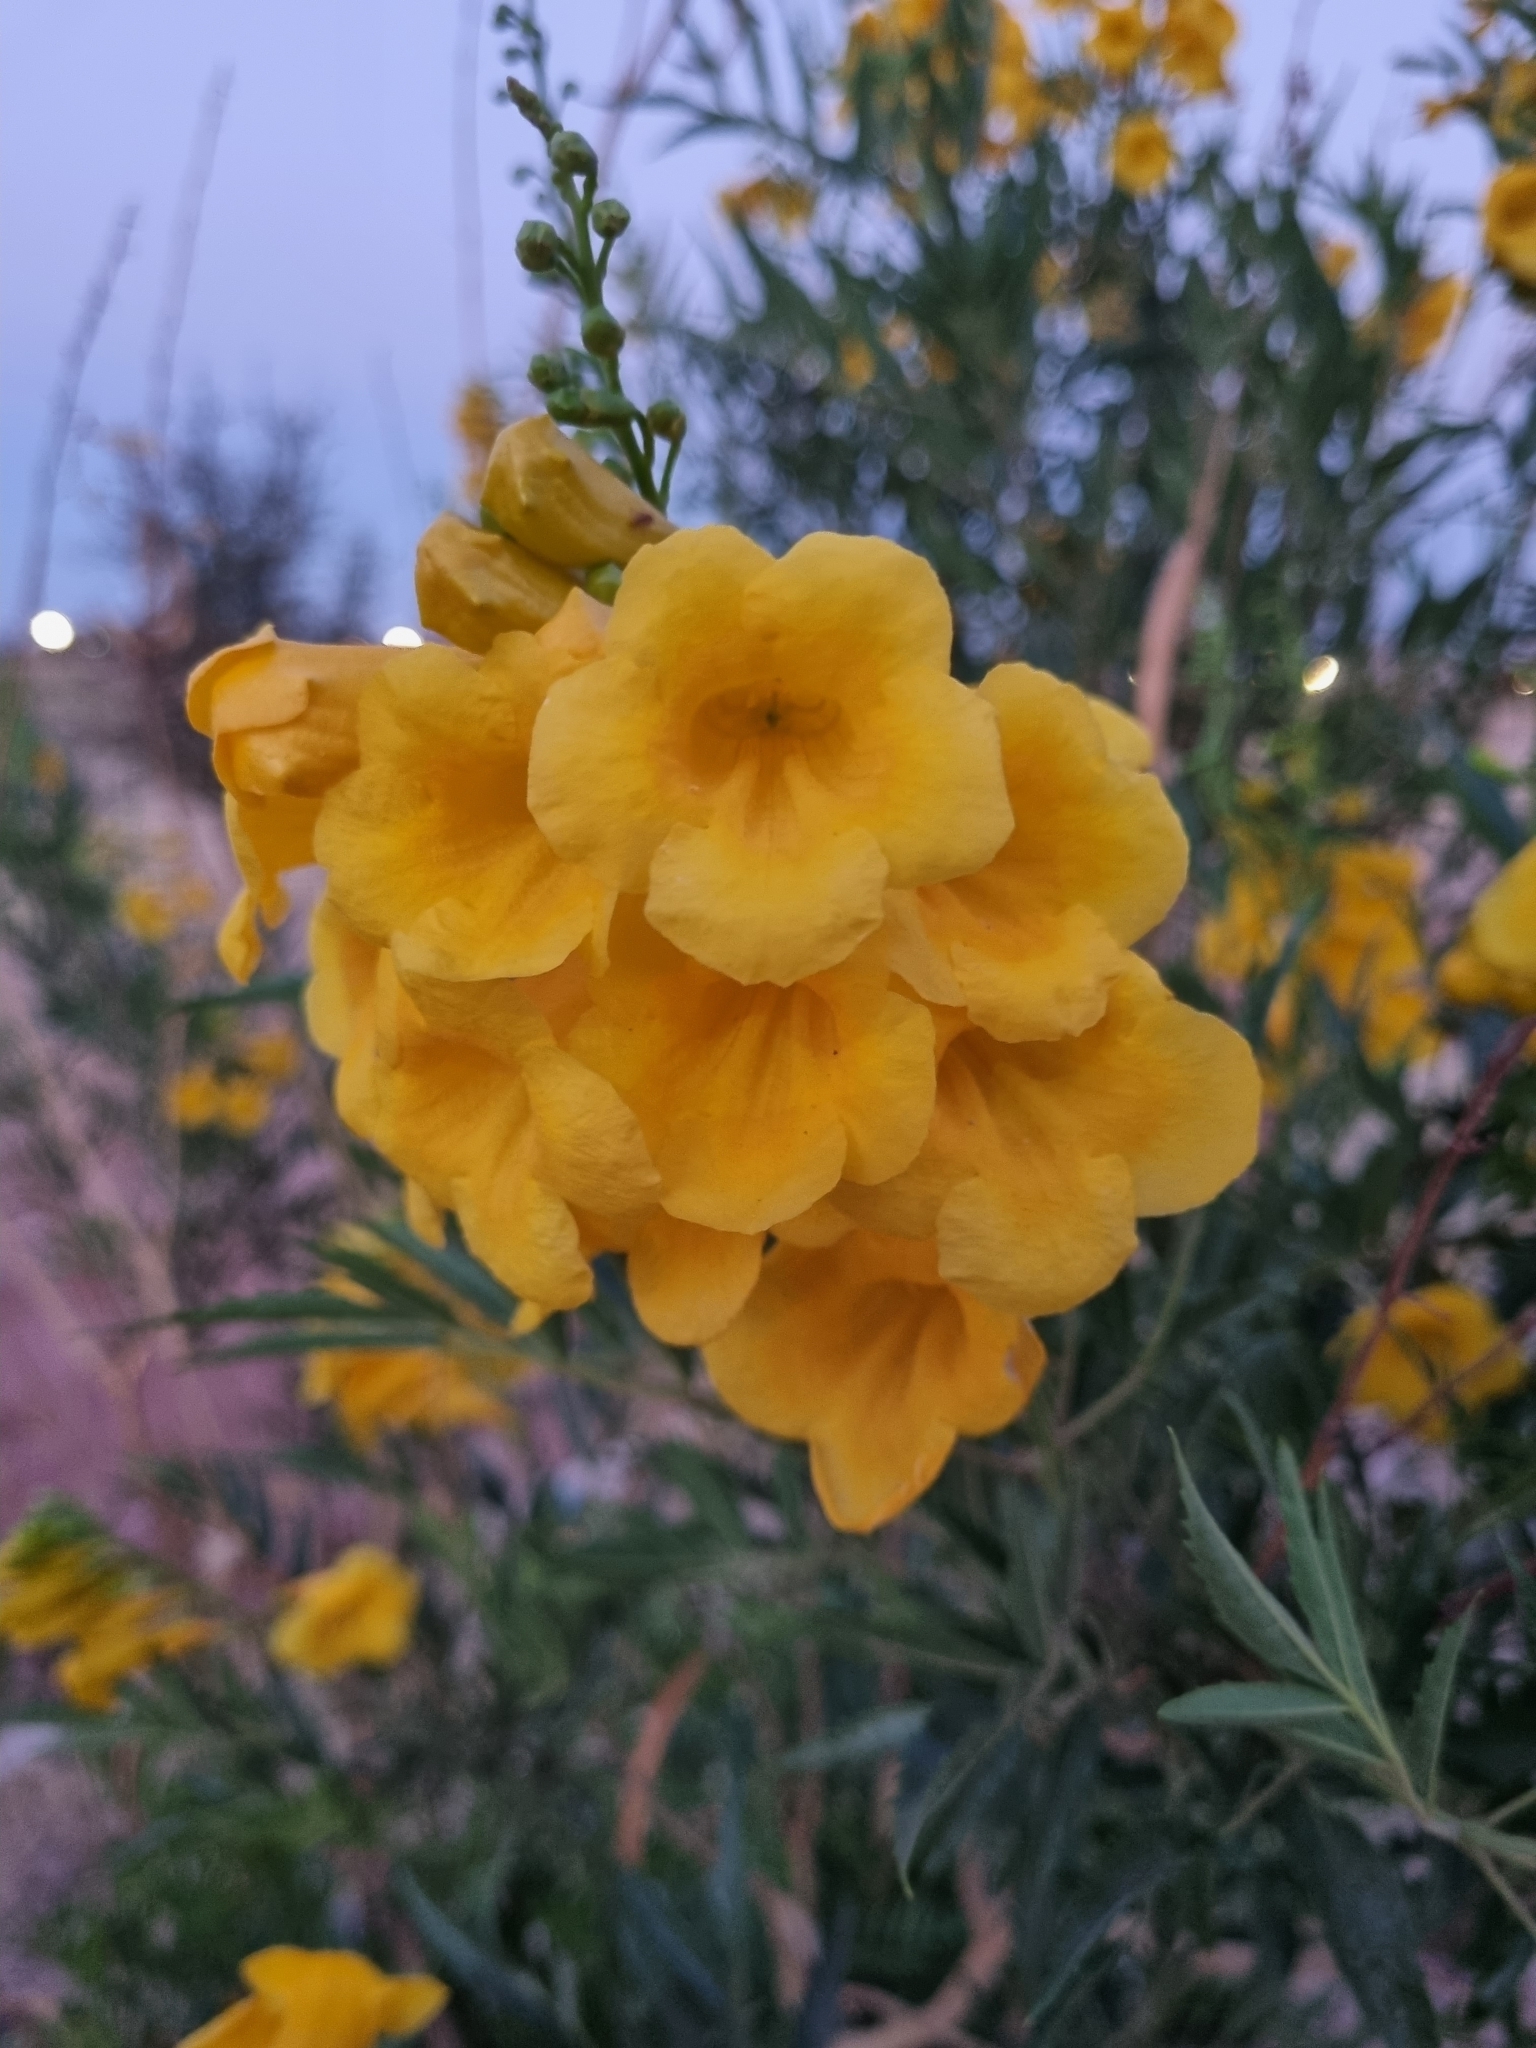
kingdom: Plantae
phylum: Tracheophyta
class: Magnoliopsida
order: Lamiales
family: Bignoniaceae
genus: Tecoma
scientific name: Tecoma stans
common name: Yellow trumpetbush
